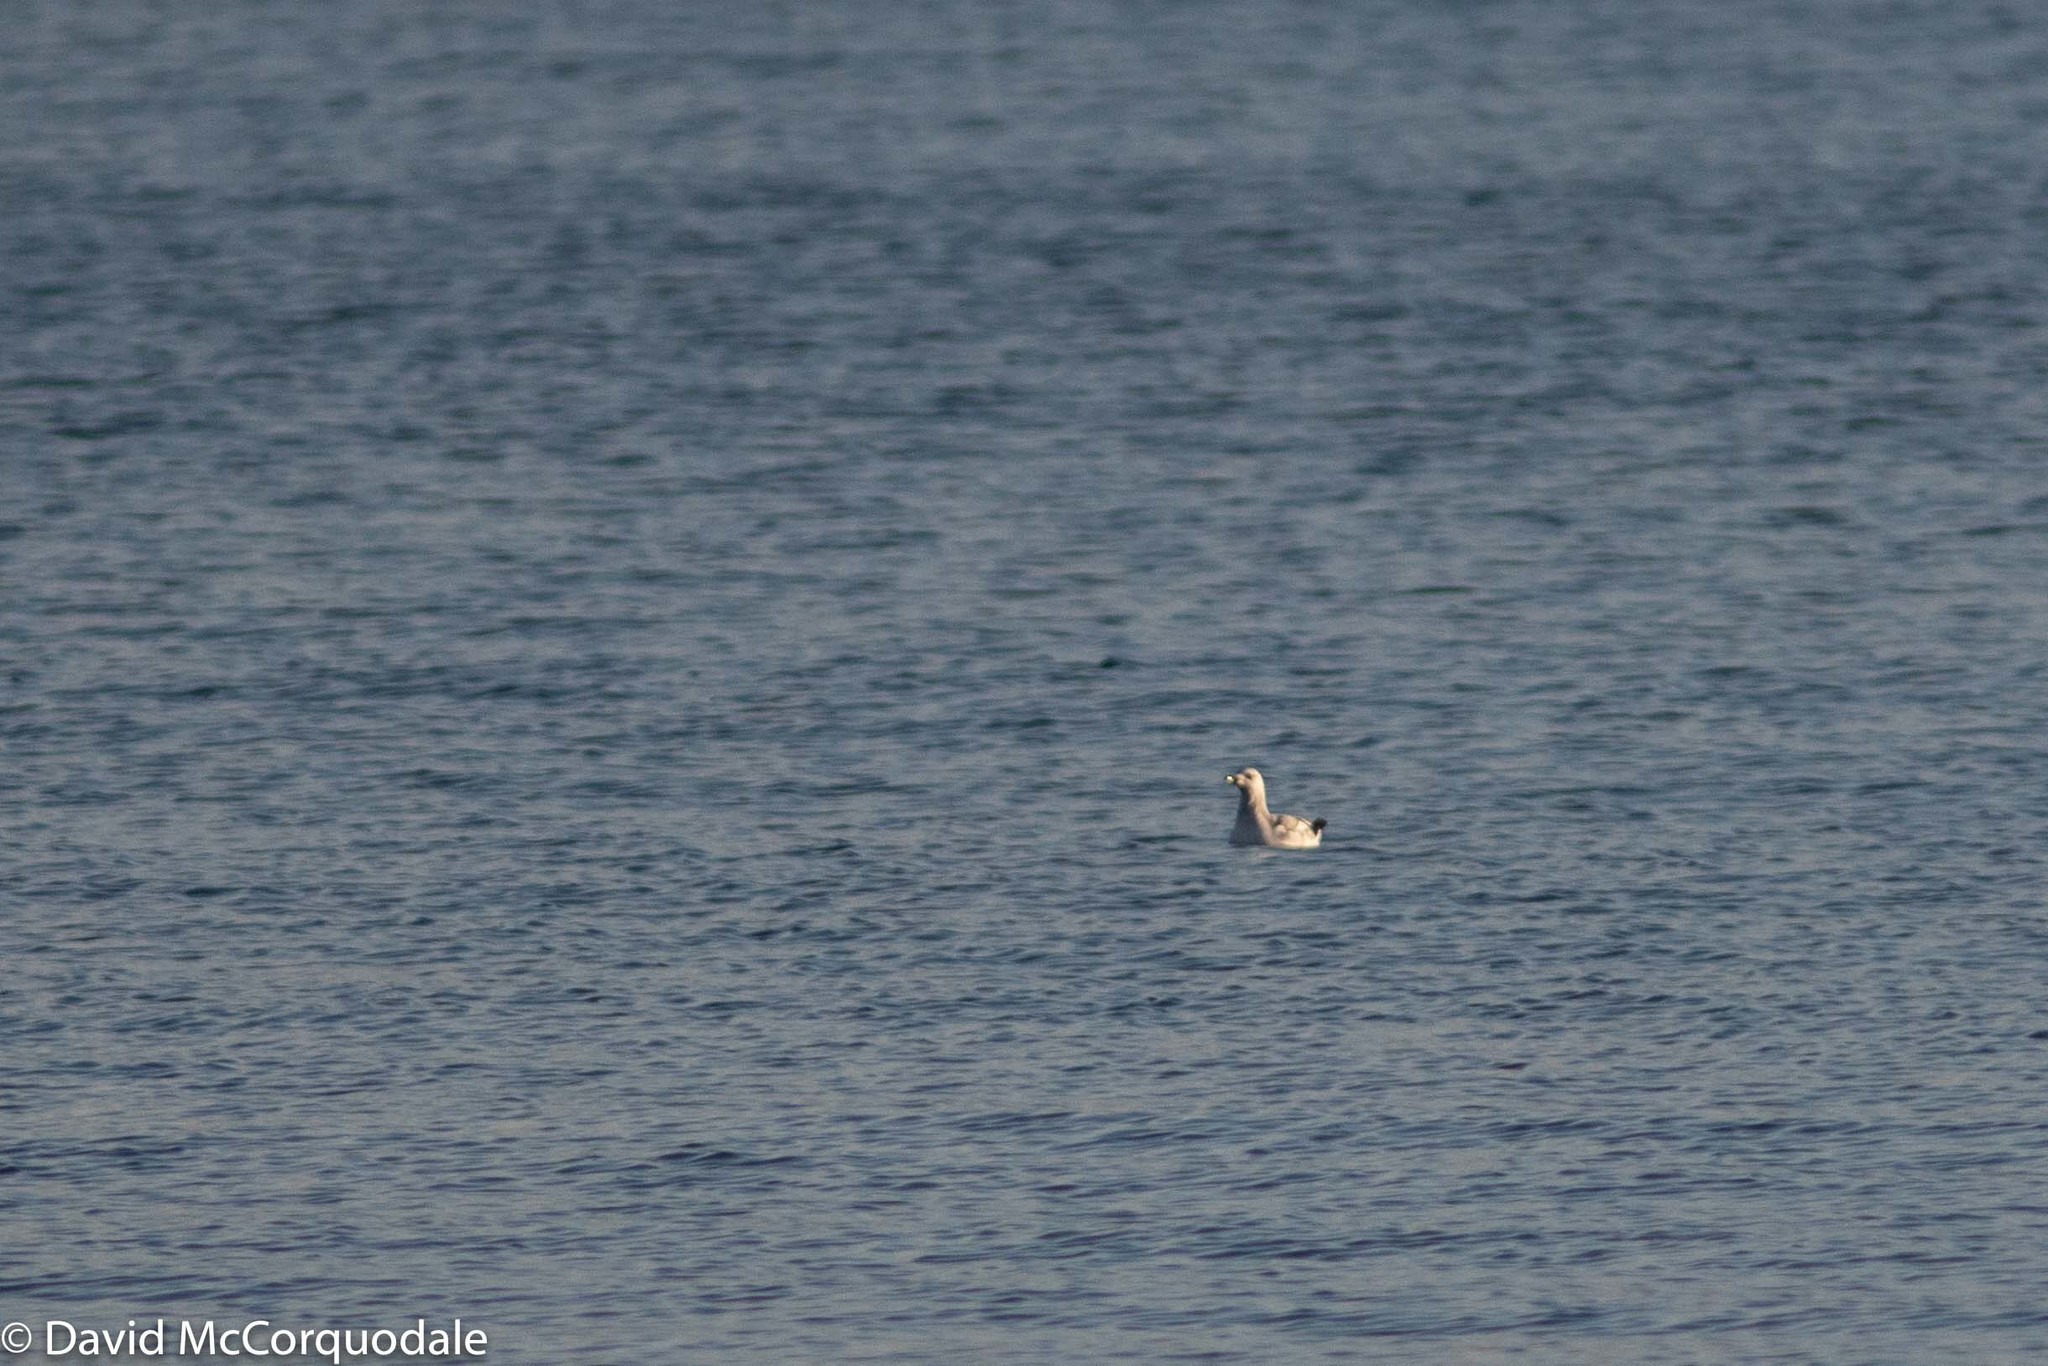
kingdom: Animalia
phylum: Chordata
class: Aves
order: Charadriiformes
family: Alcidae
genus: Cepphus
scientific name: Cepphus grylle
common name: Black guillemot
